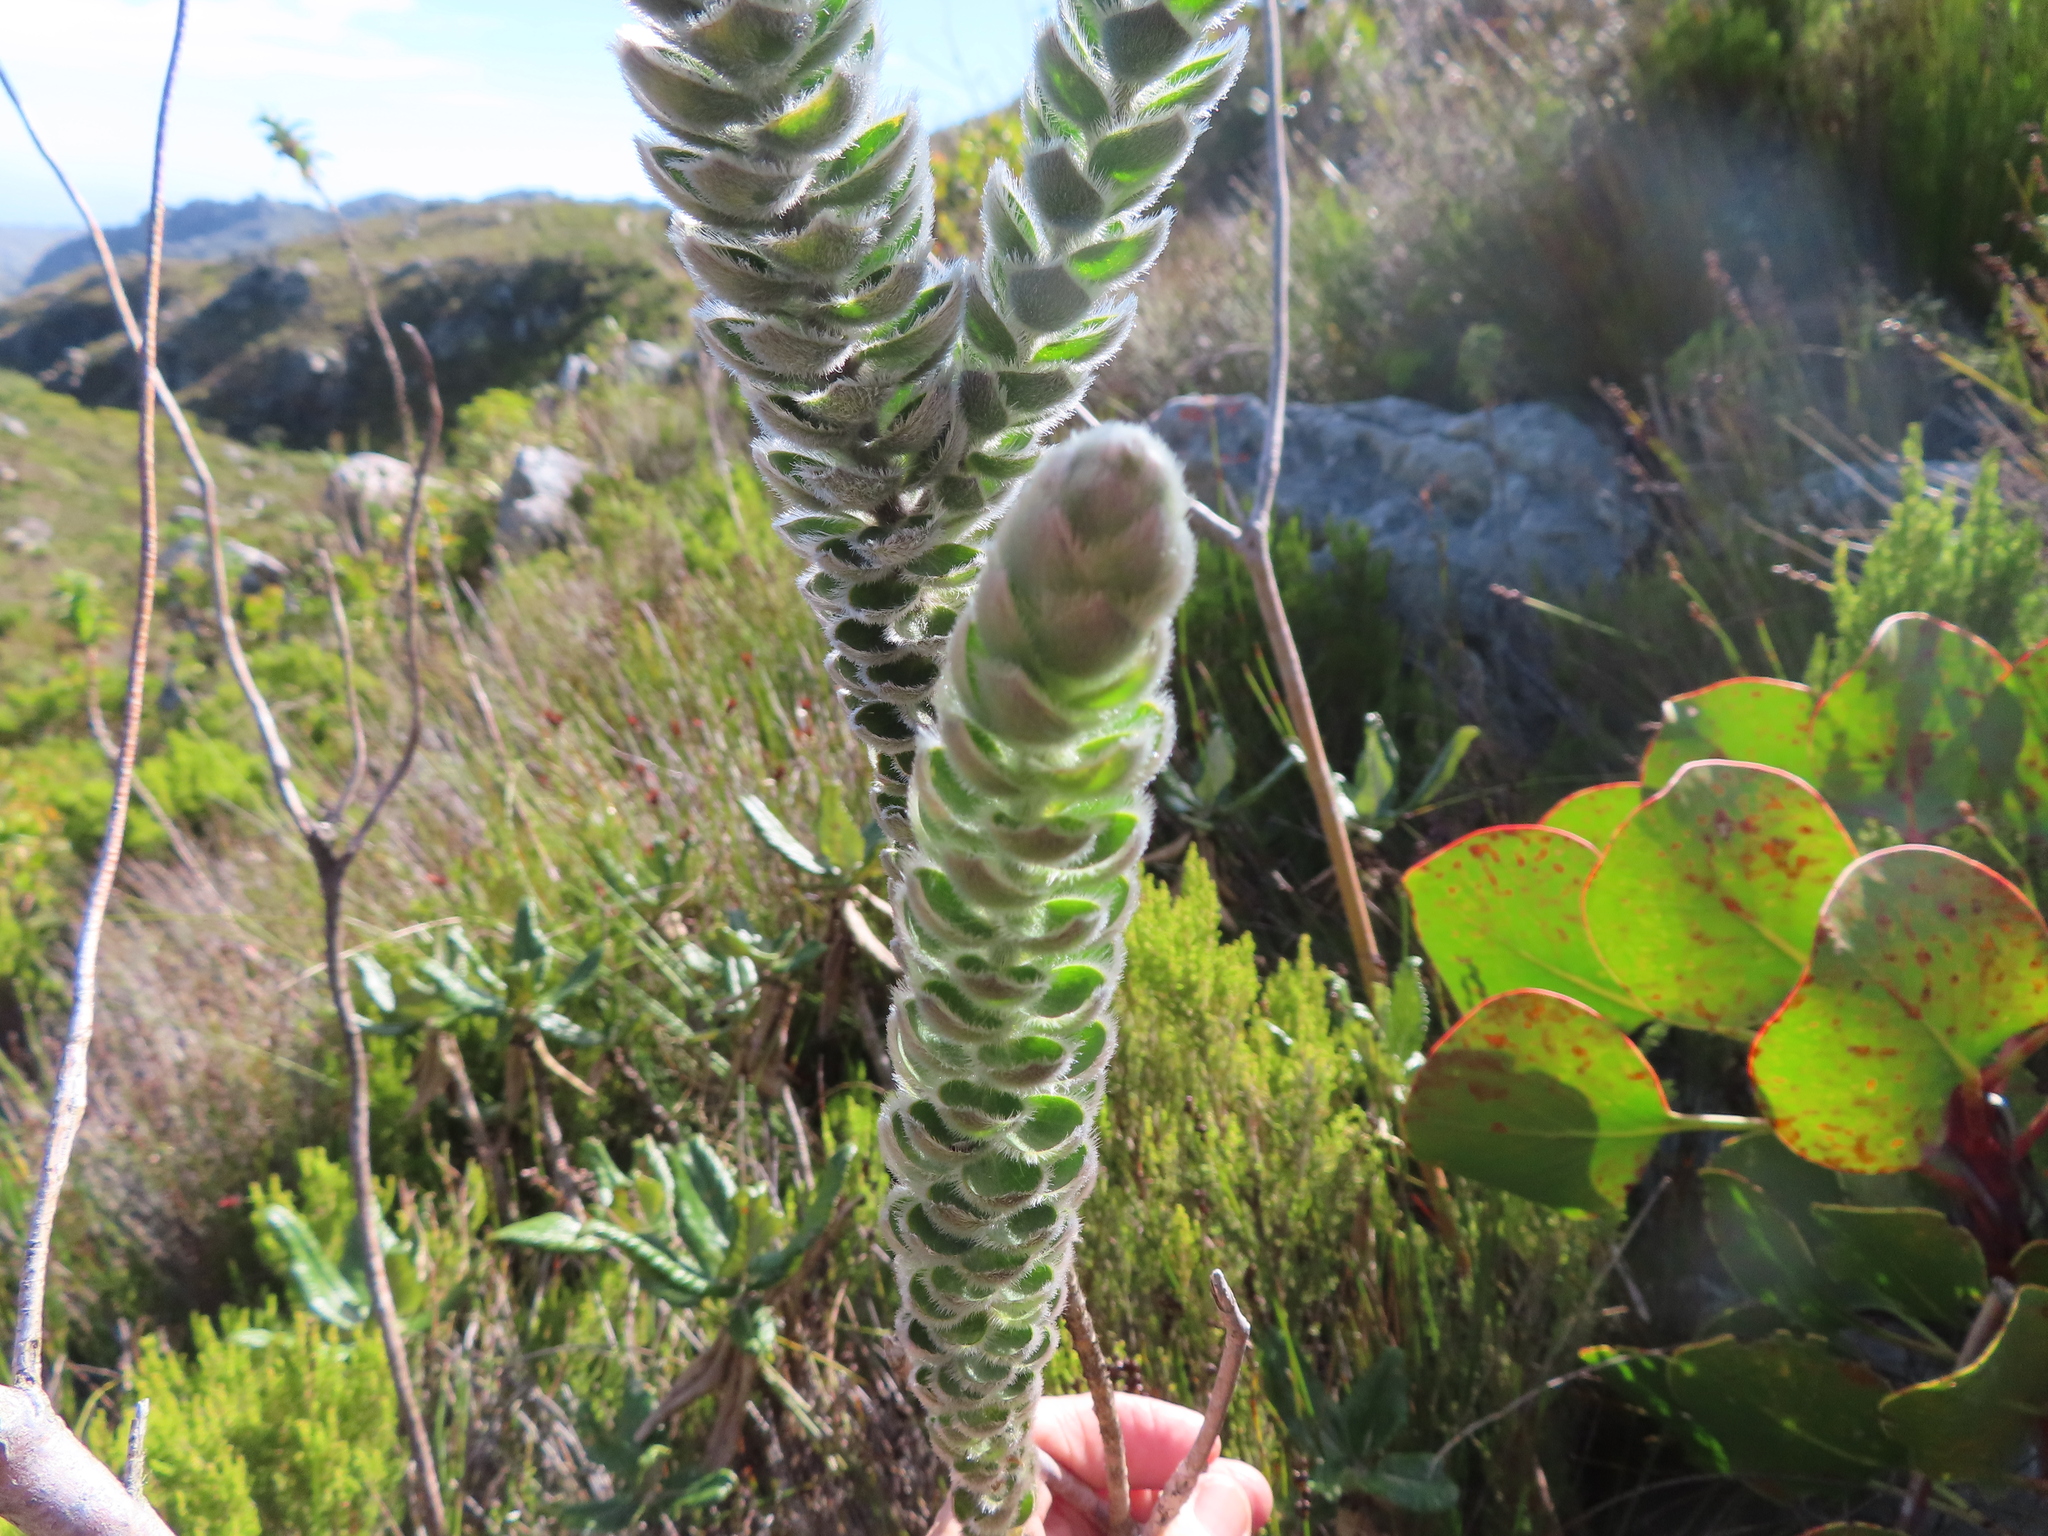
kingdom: Plantae
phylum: Tracheophyta
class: Magnoliopsida
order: Fabales
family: Fabaceae
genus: Liparia
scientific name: Liparia calycina
